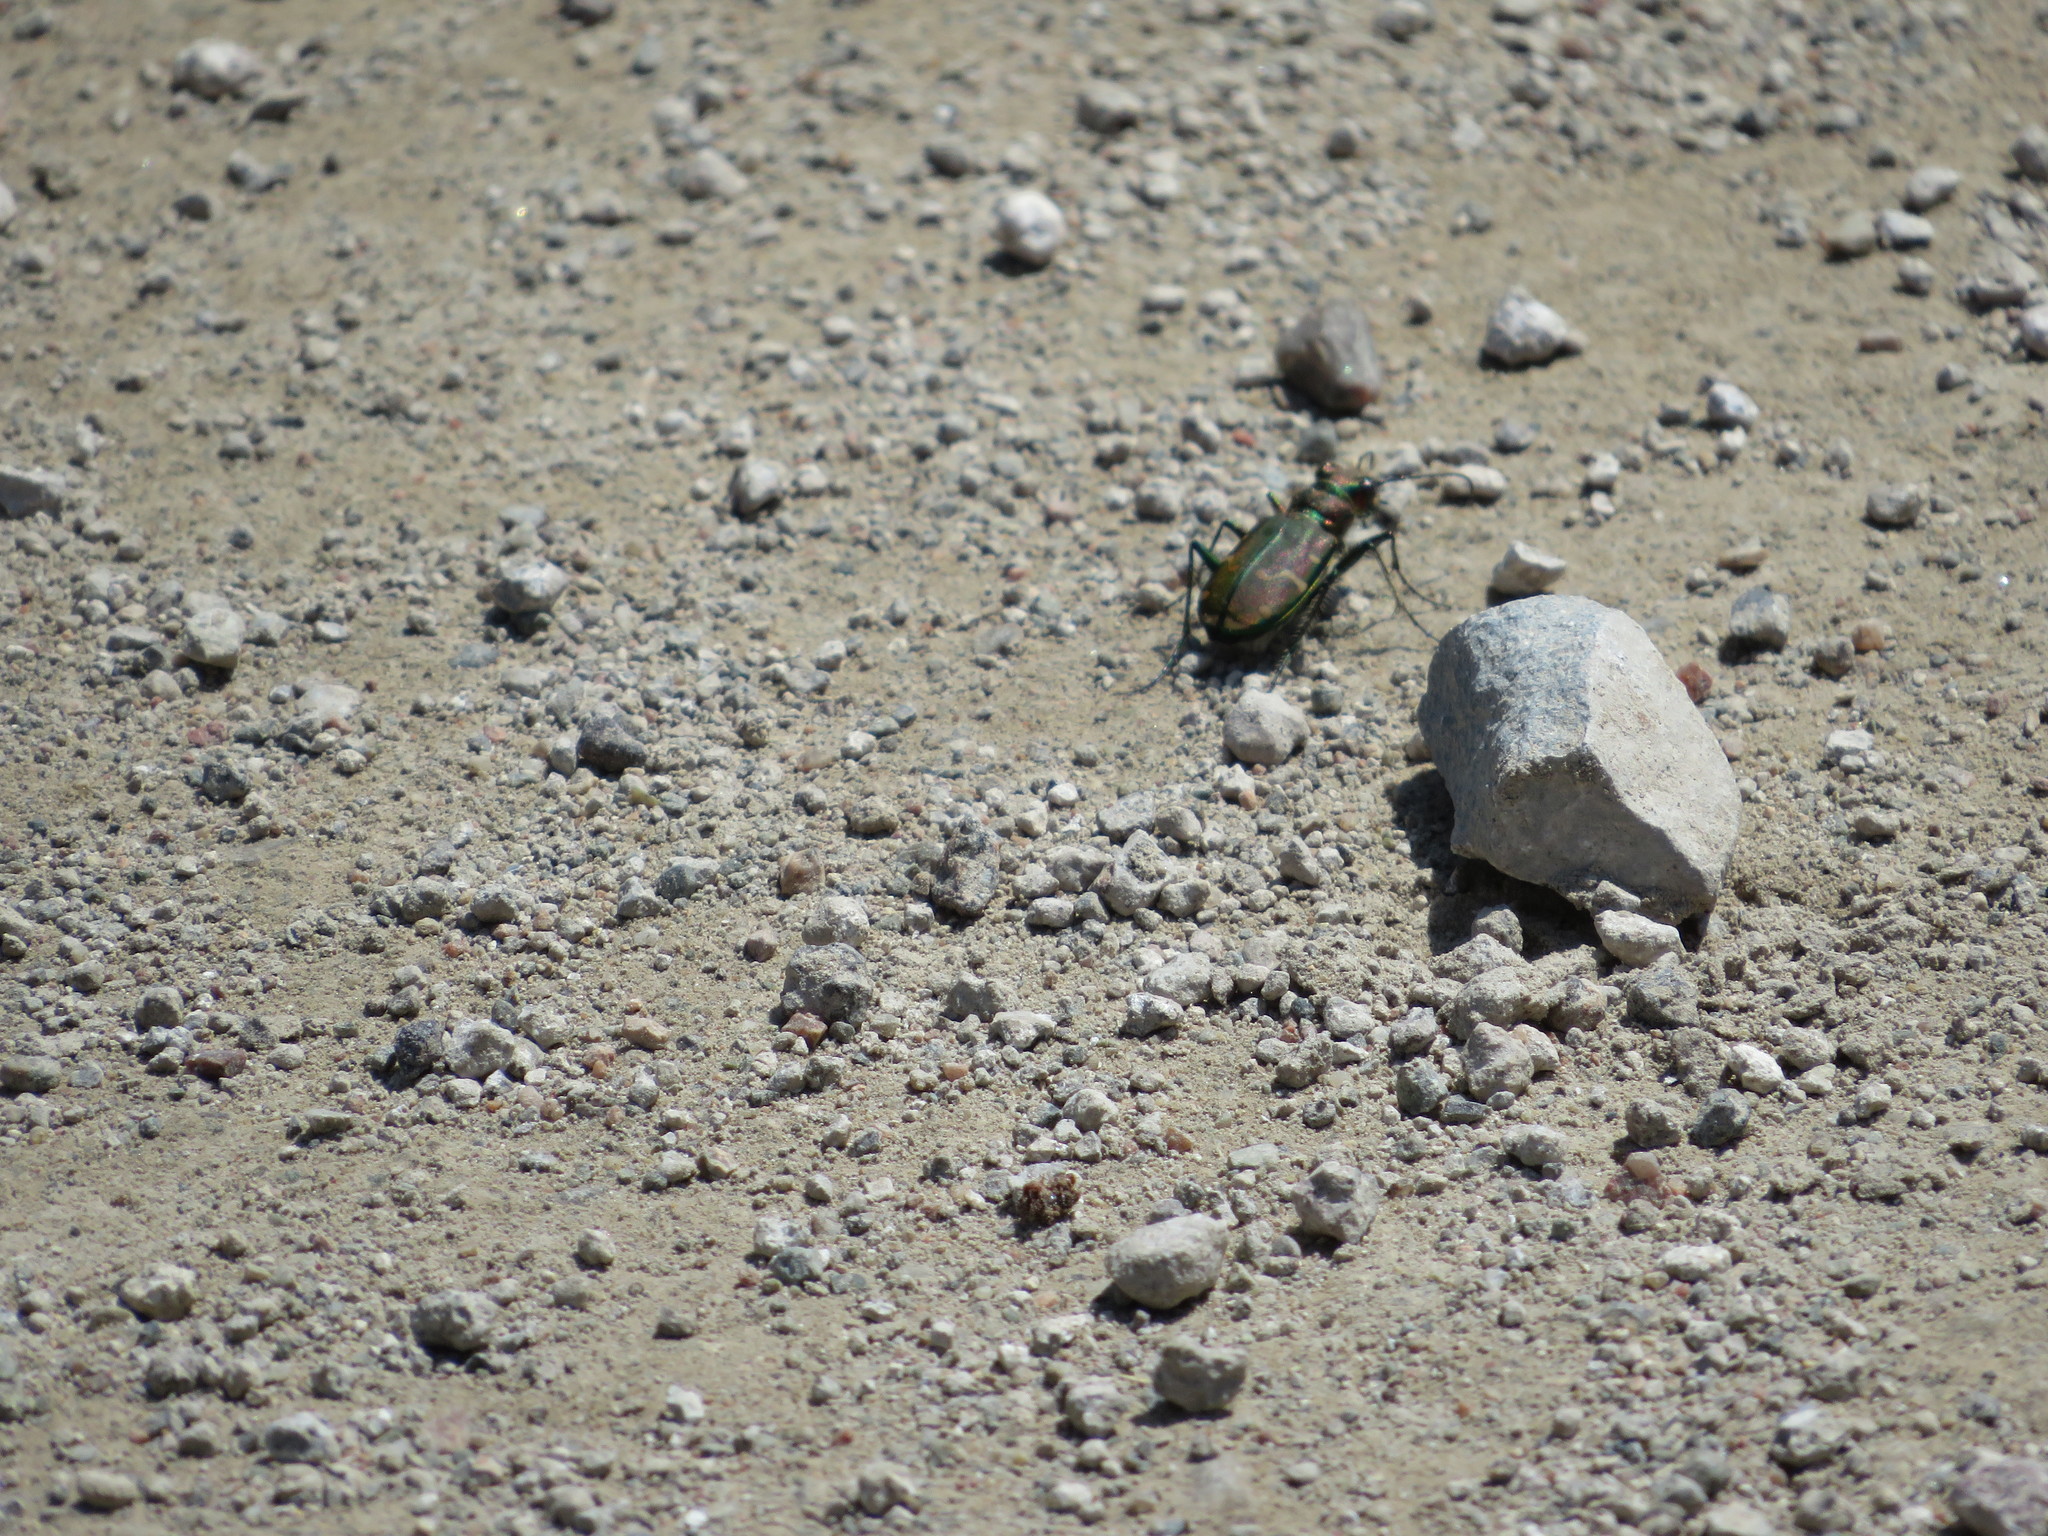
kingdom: Animalia
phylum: Arthropoda
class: Insecta
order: Coleoptera
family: Carabidae
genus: Cicindela
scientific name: Cicindela limbalis
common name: Common claybank tiger beetle
